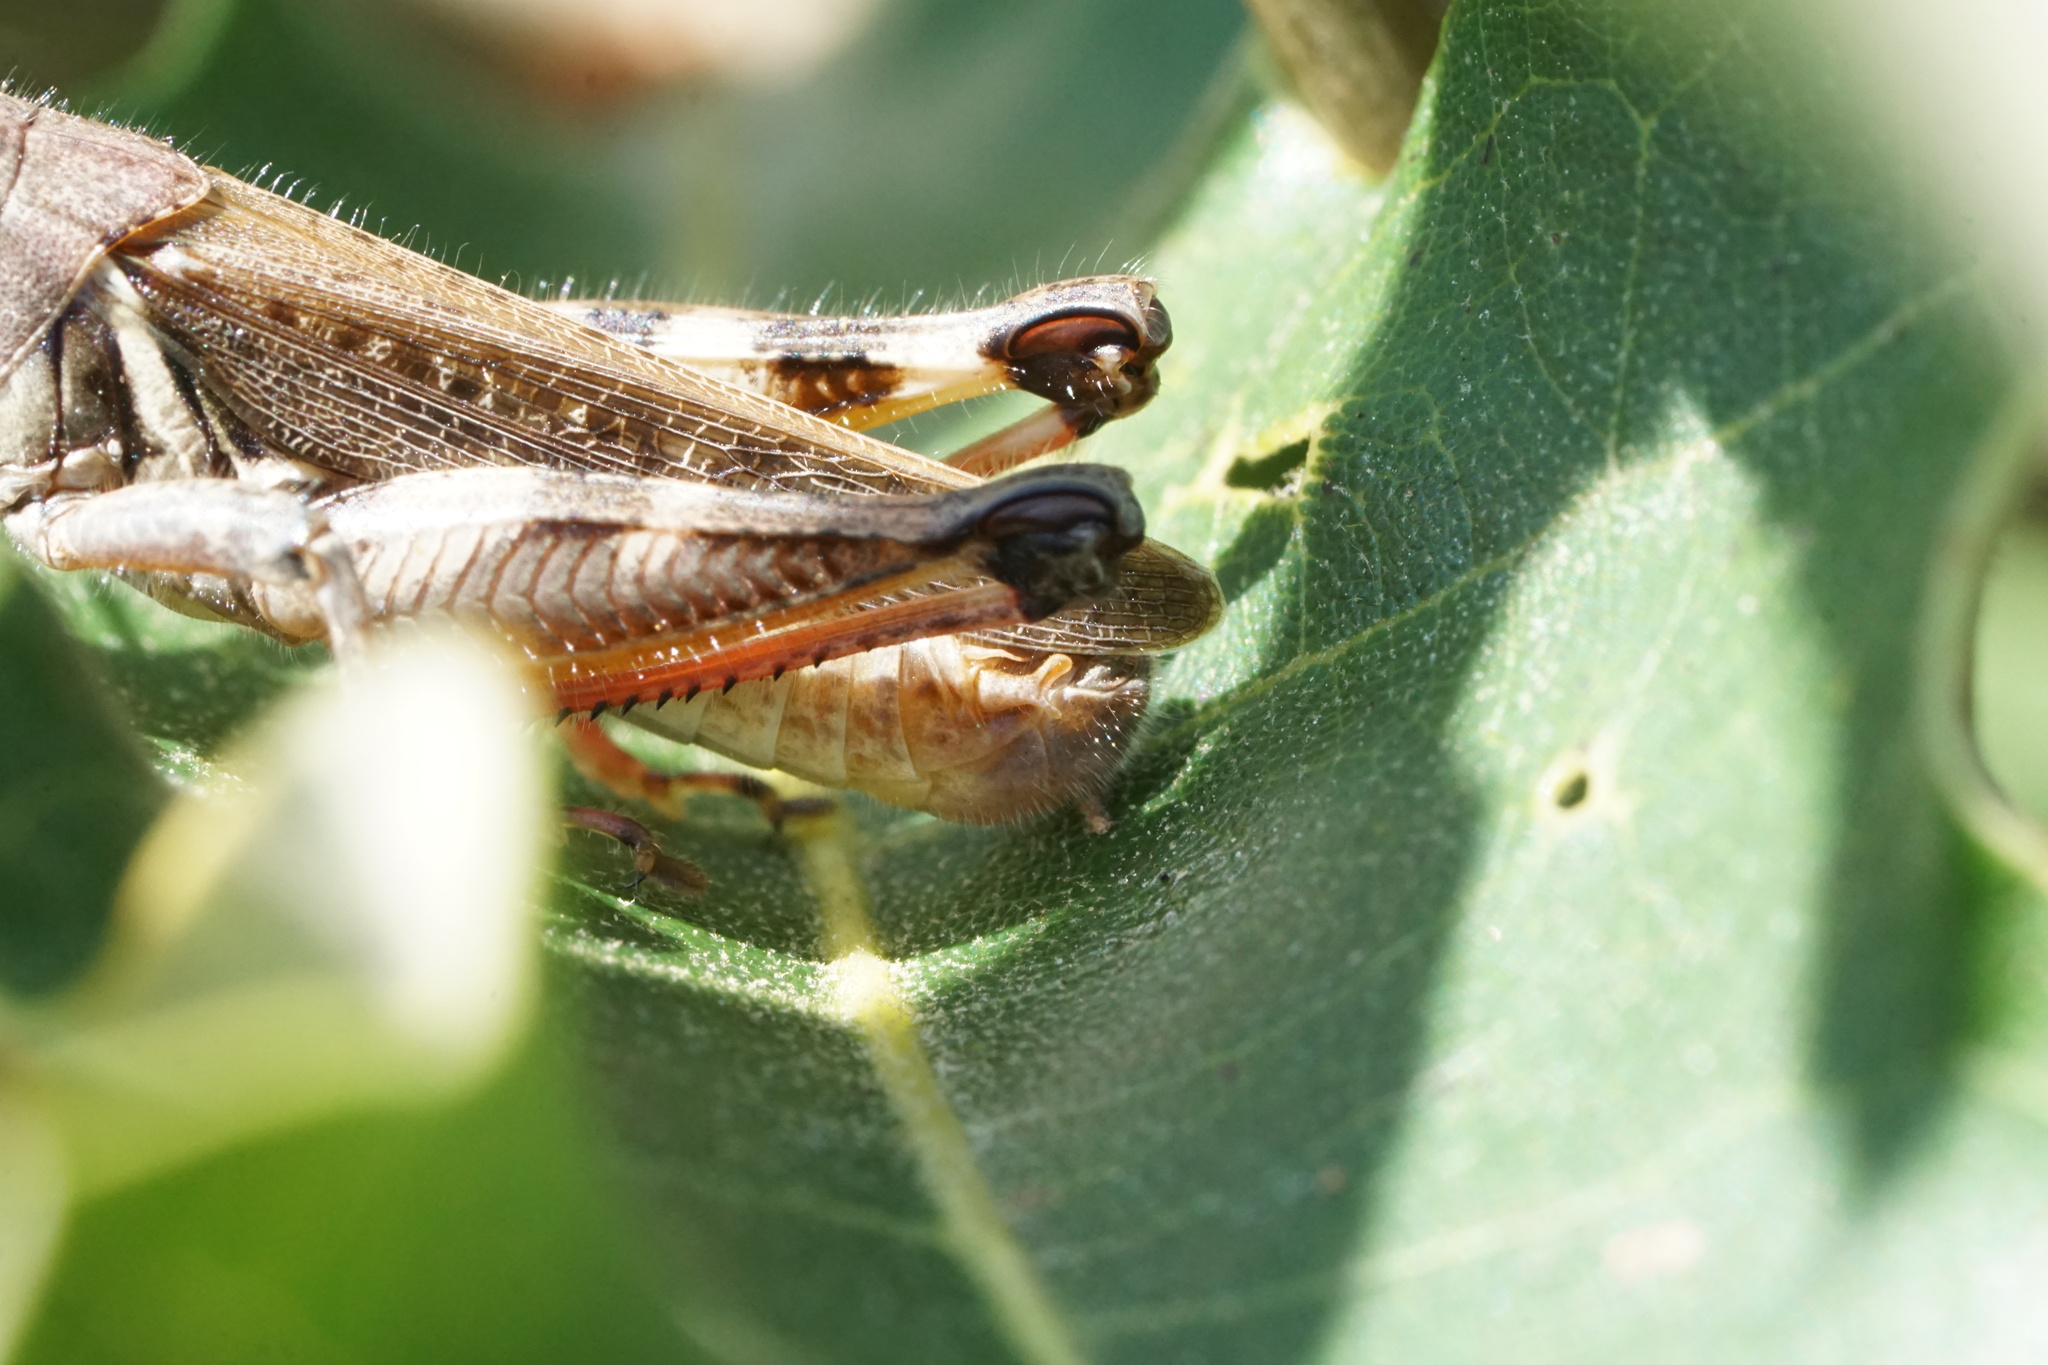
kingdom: Animalia
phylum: Arthropoda
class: Insecta
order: Orthoptera
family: Acrididae
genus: Melanoplus
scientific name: Melanoplus keeleri
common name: Keeler grasshopper
